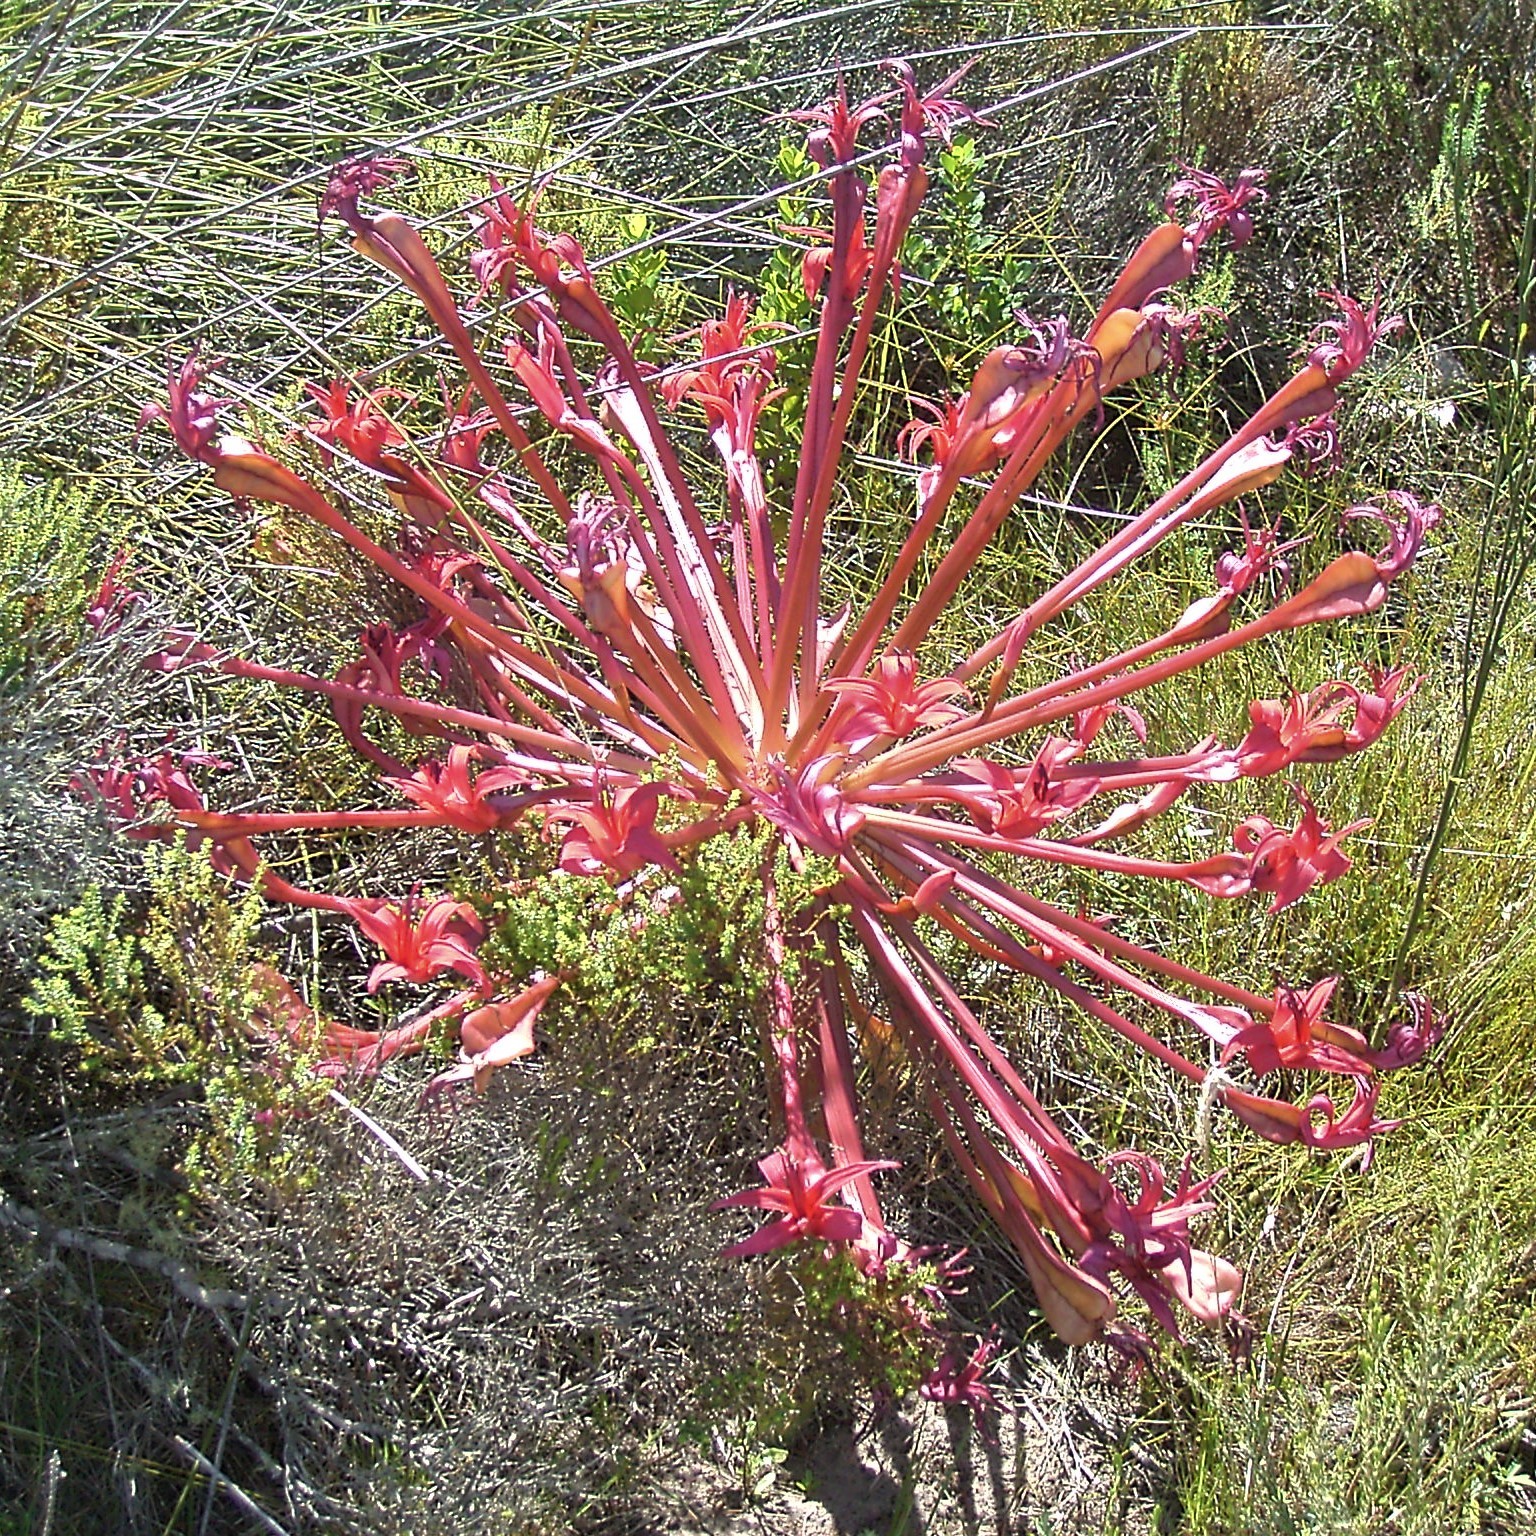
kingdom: Plantae
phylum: Tracheophyta
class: Liliopsida
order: Asparagales
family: Amaryllidaceae
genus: Brunsvigia
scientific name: Brunsvigia orientalis
